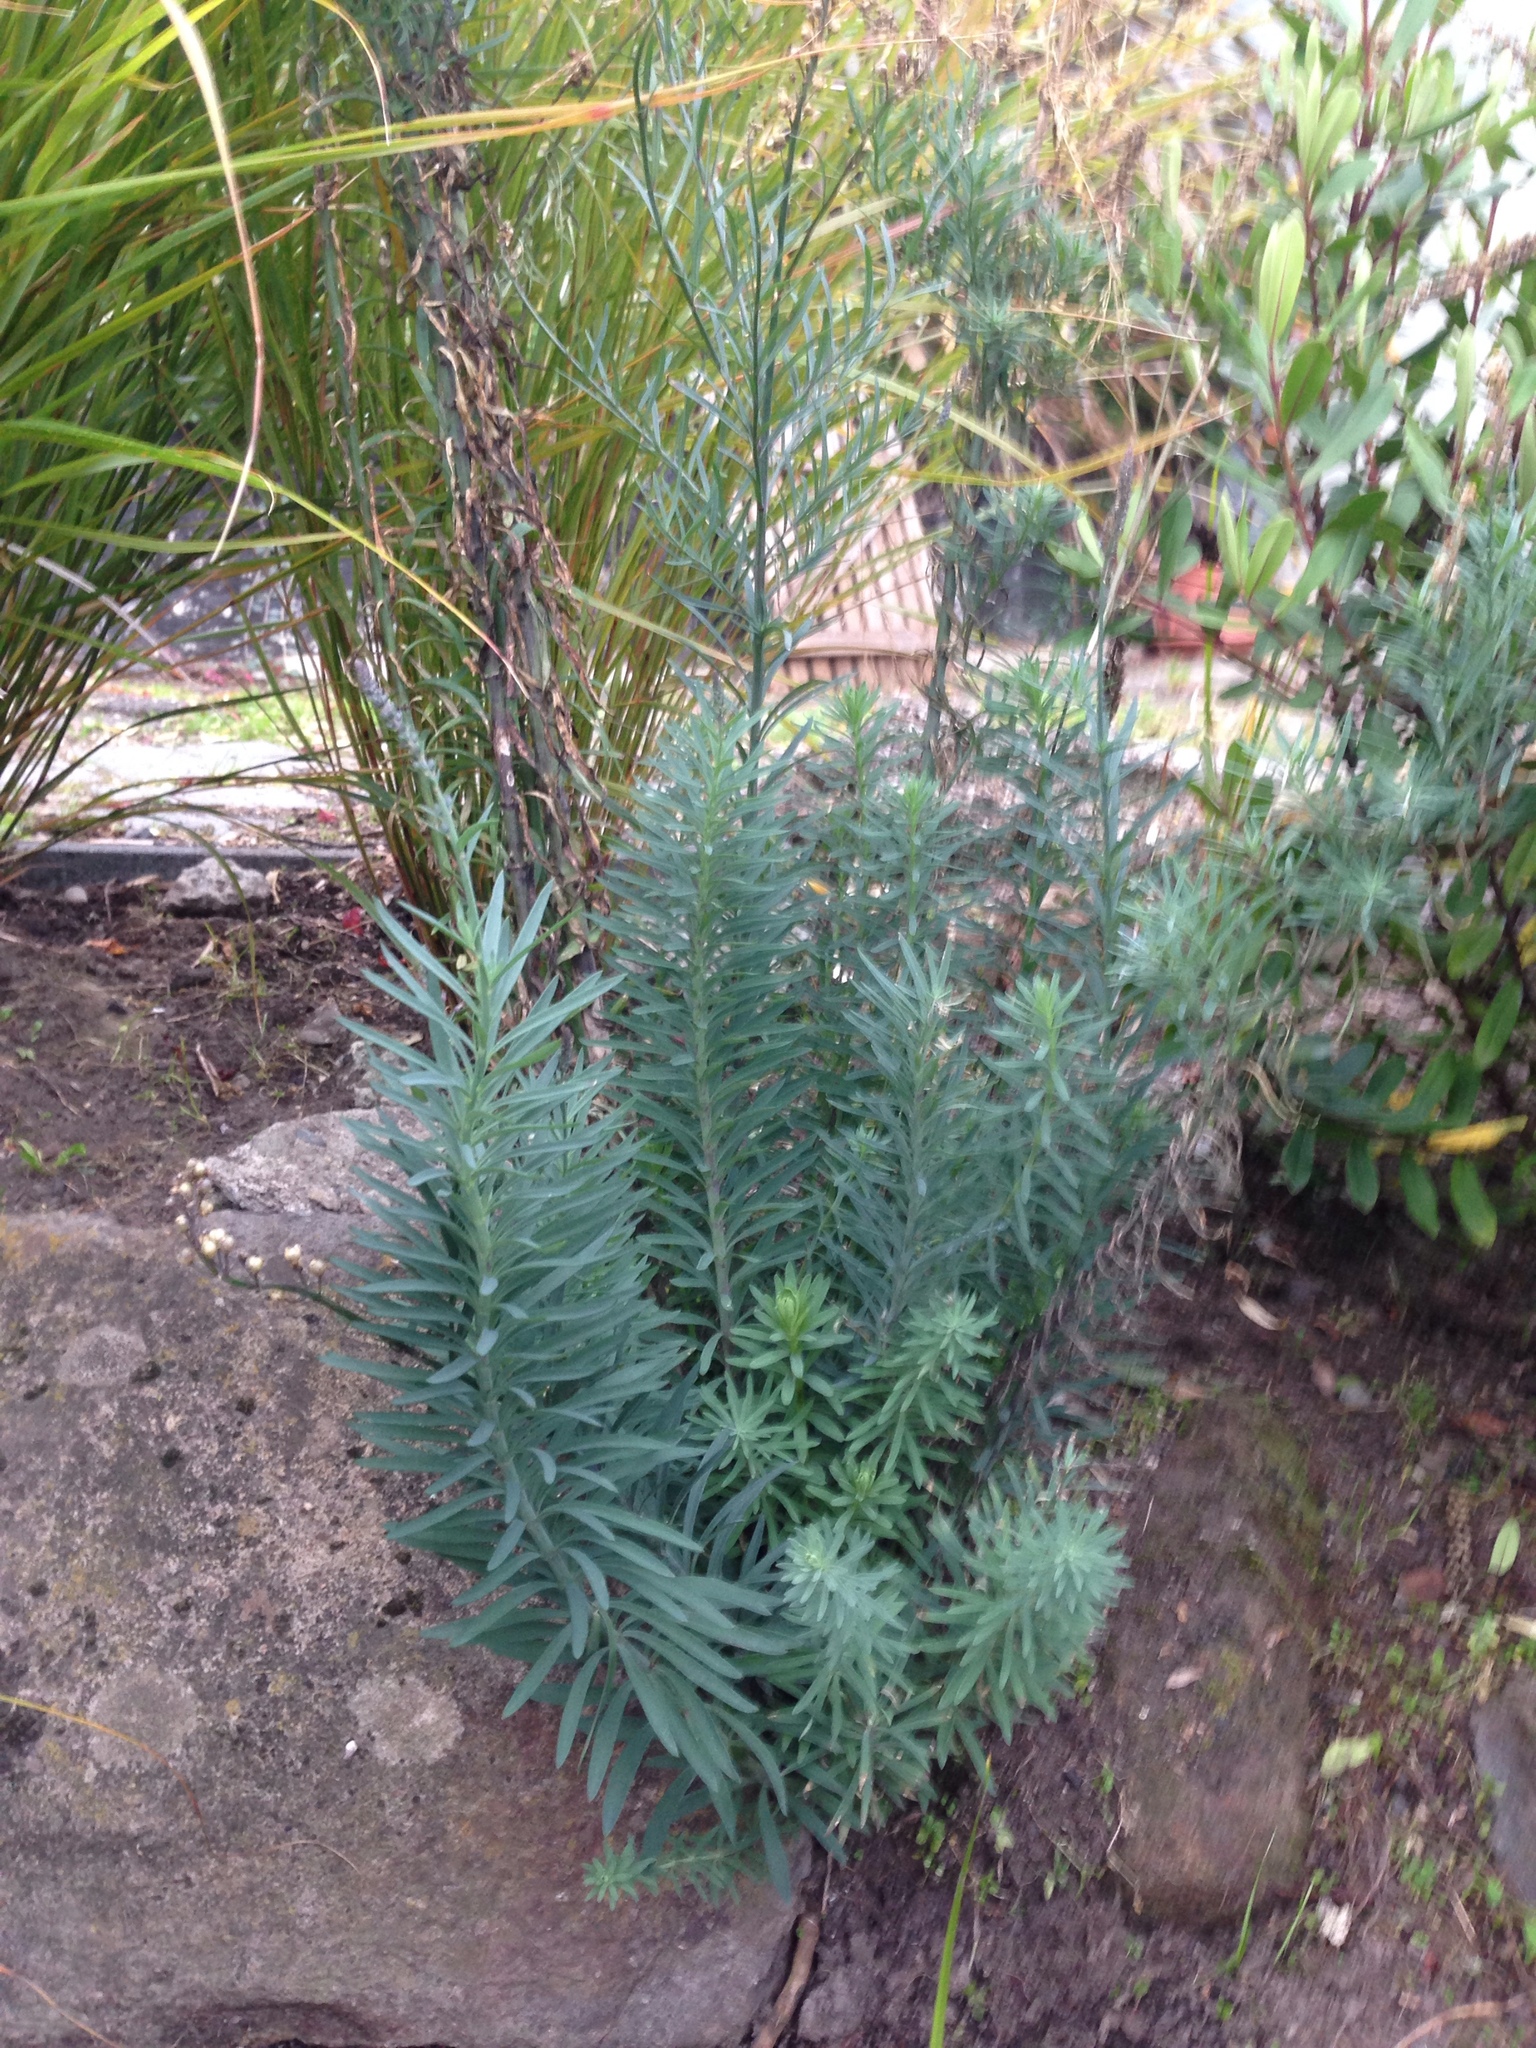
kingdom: Plantae
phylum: Tracheophyta
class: Magnoliopsida
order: Lamiales
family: Plantaginaceae
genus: Linaria
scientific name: Linaria purpurea
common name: Purple toadflax
